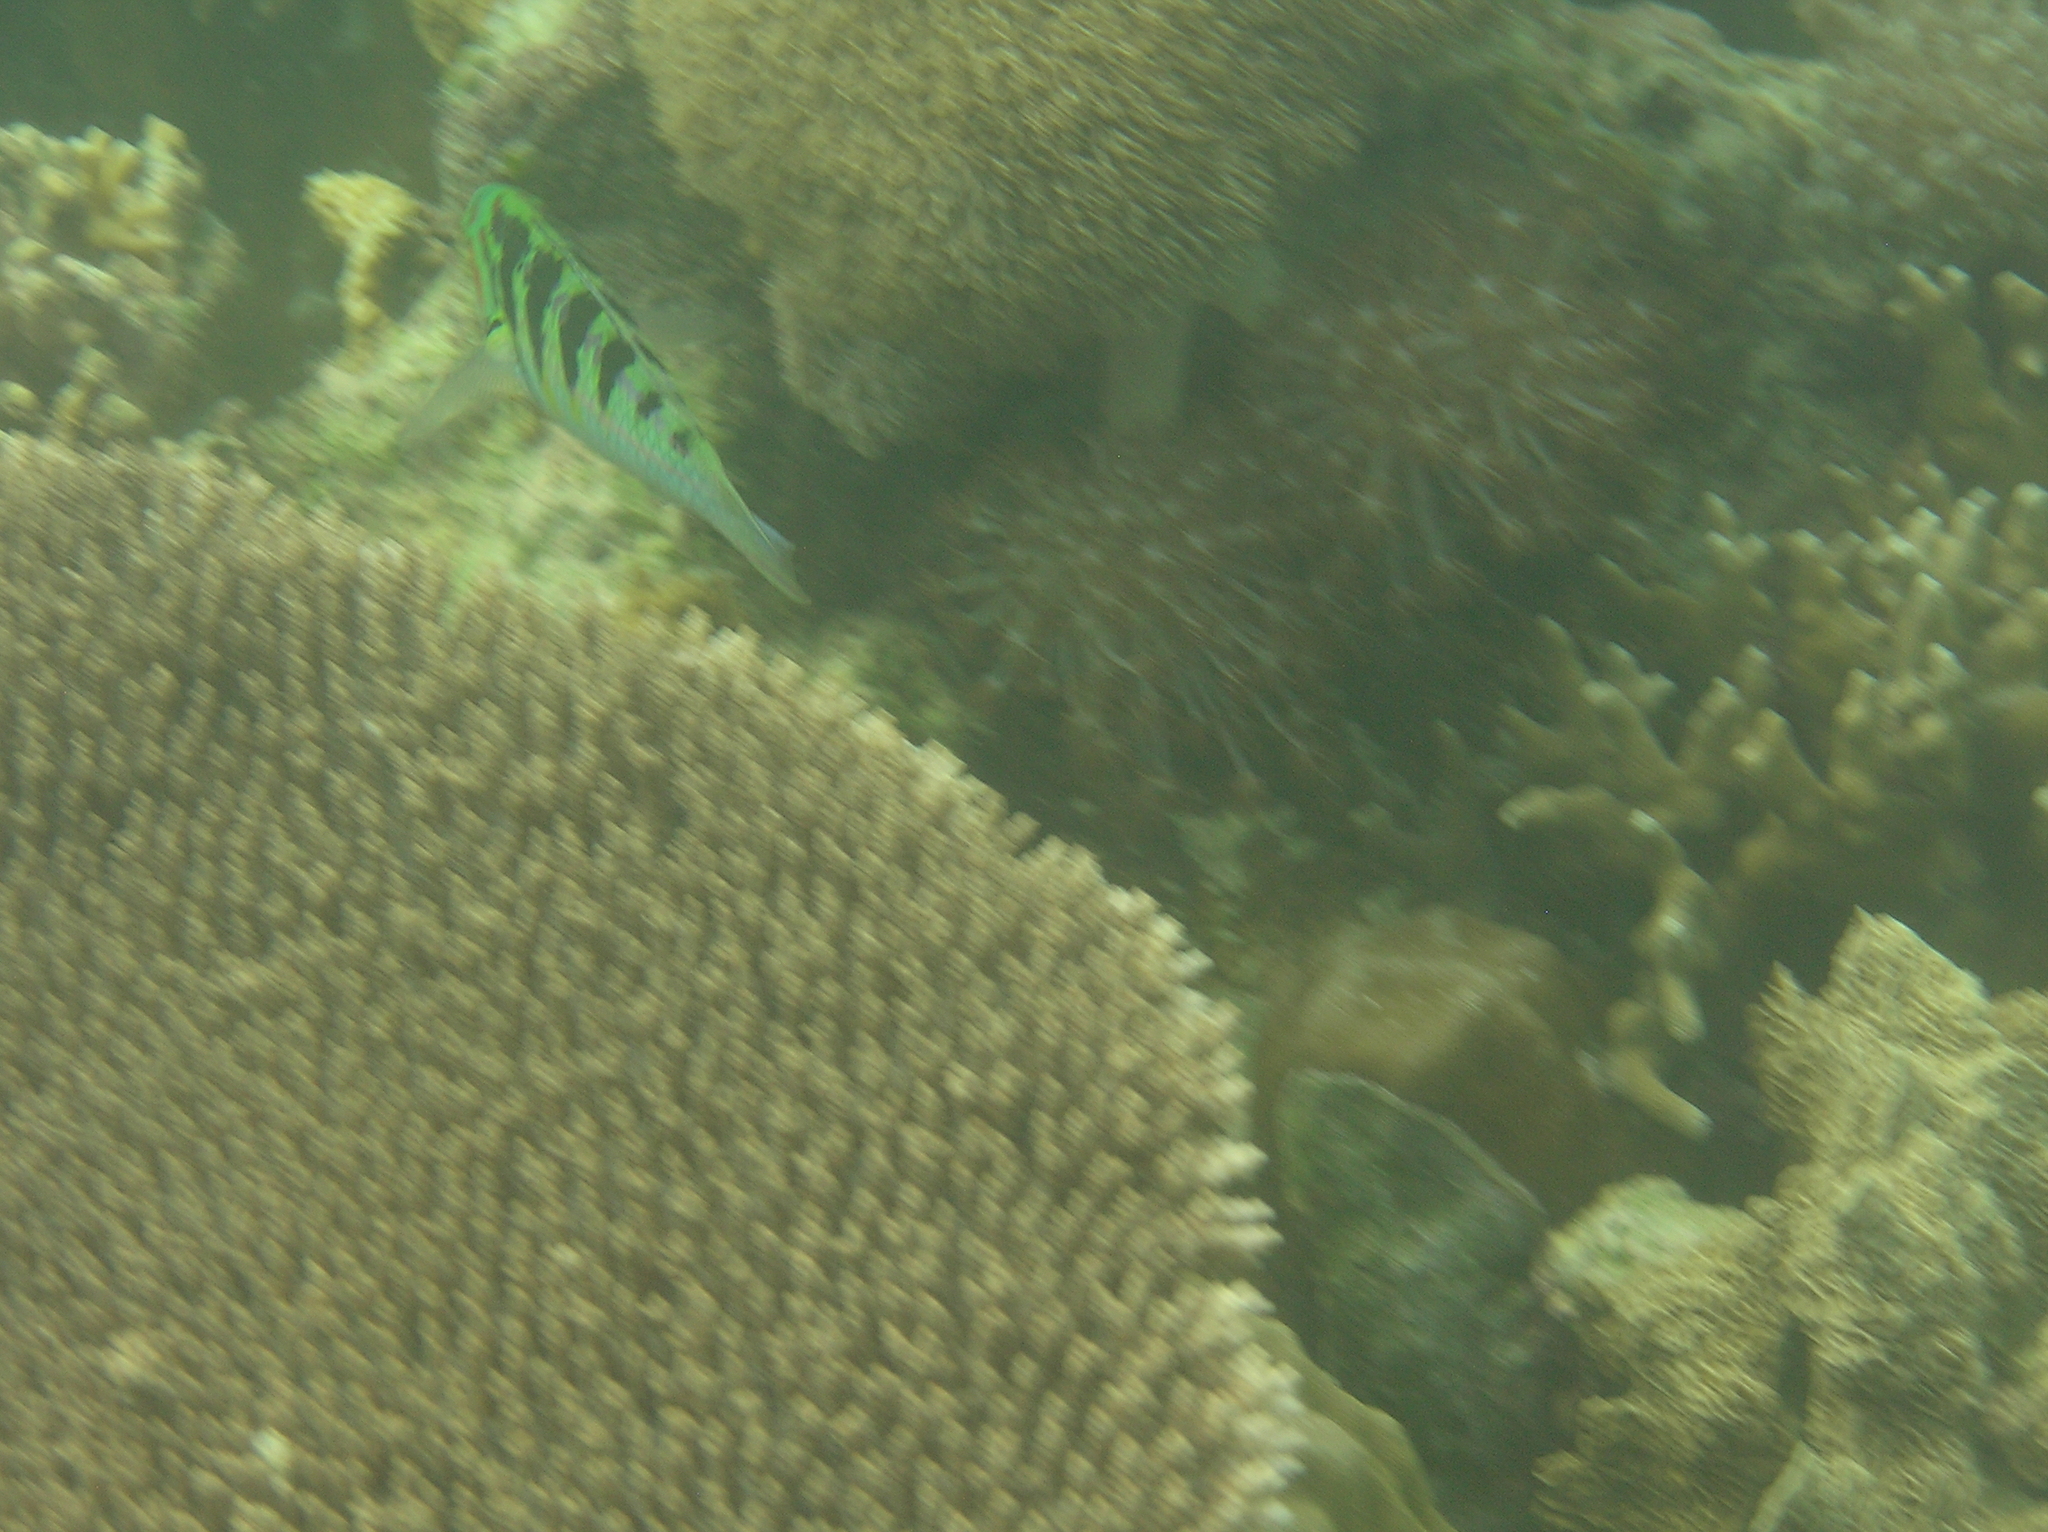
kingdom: Animalia
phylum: Chordata
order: Perciformes
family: Labridae
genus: Thalassoma
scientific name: Thalassoma hardwicke
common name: Sixbar wrasse
